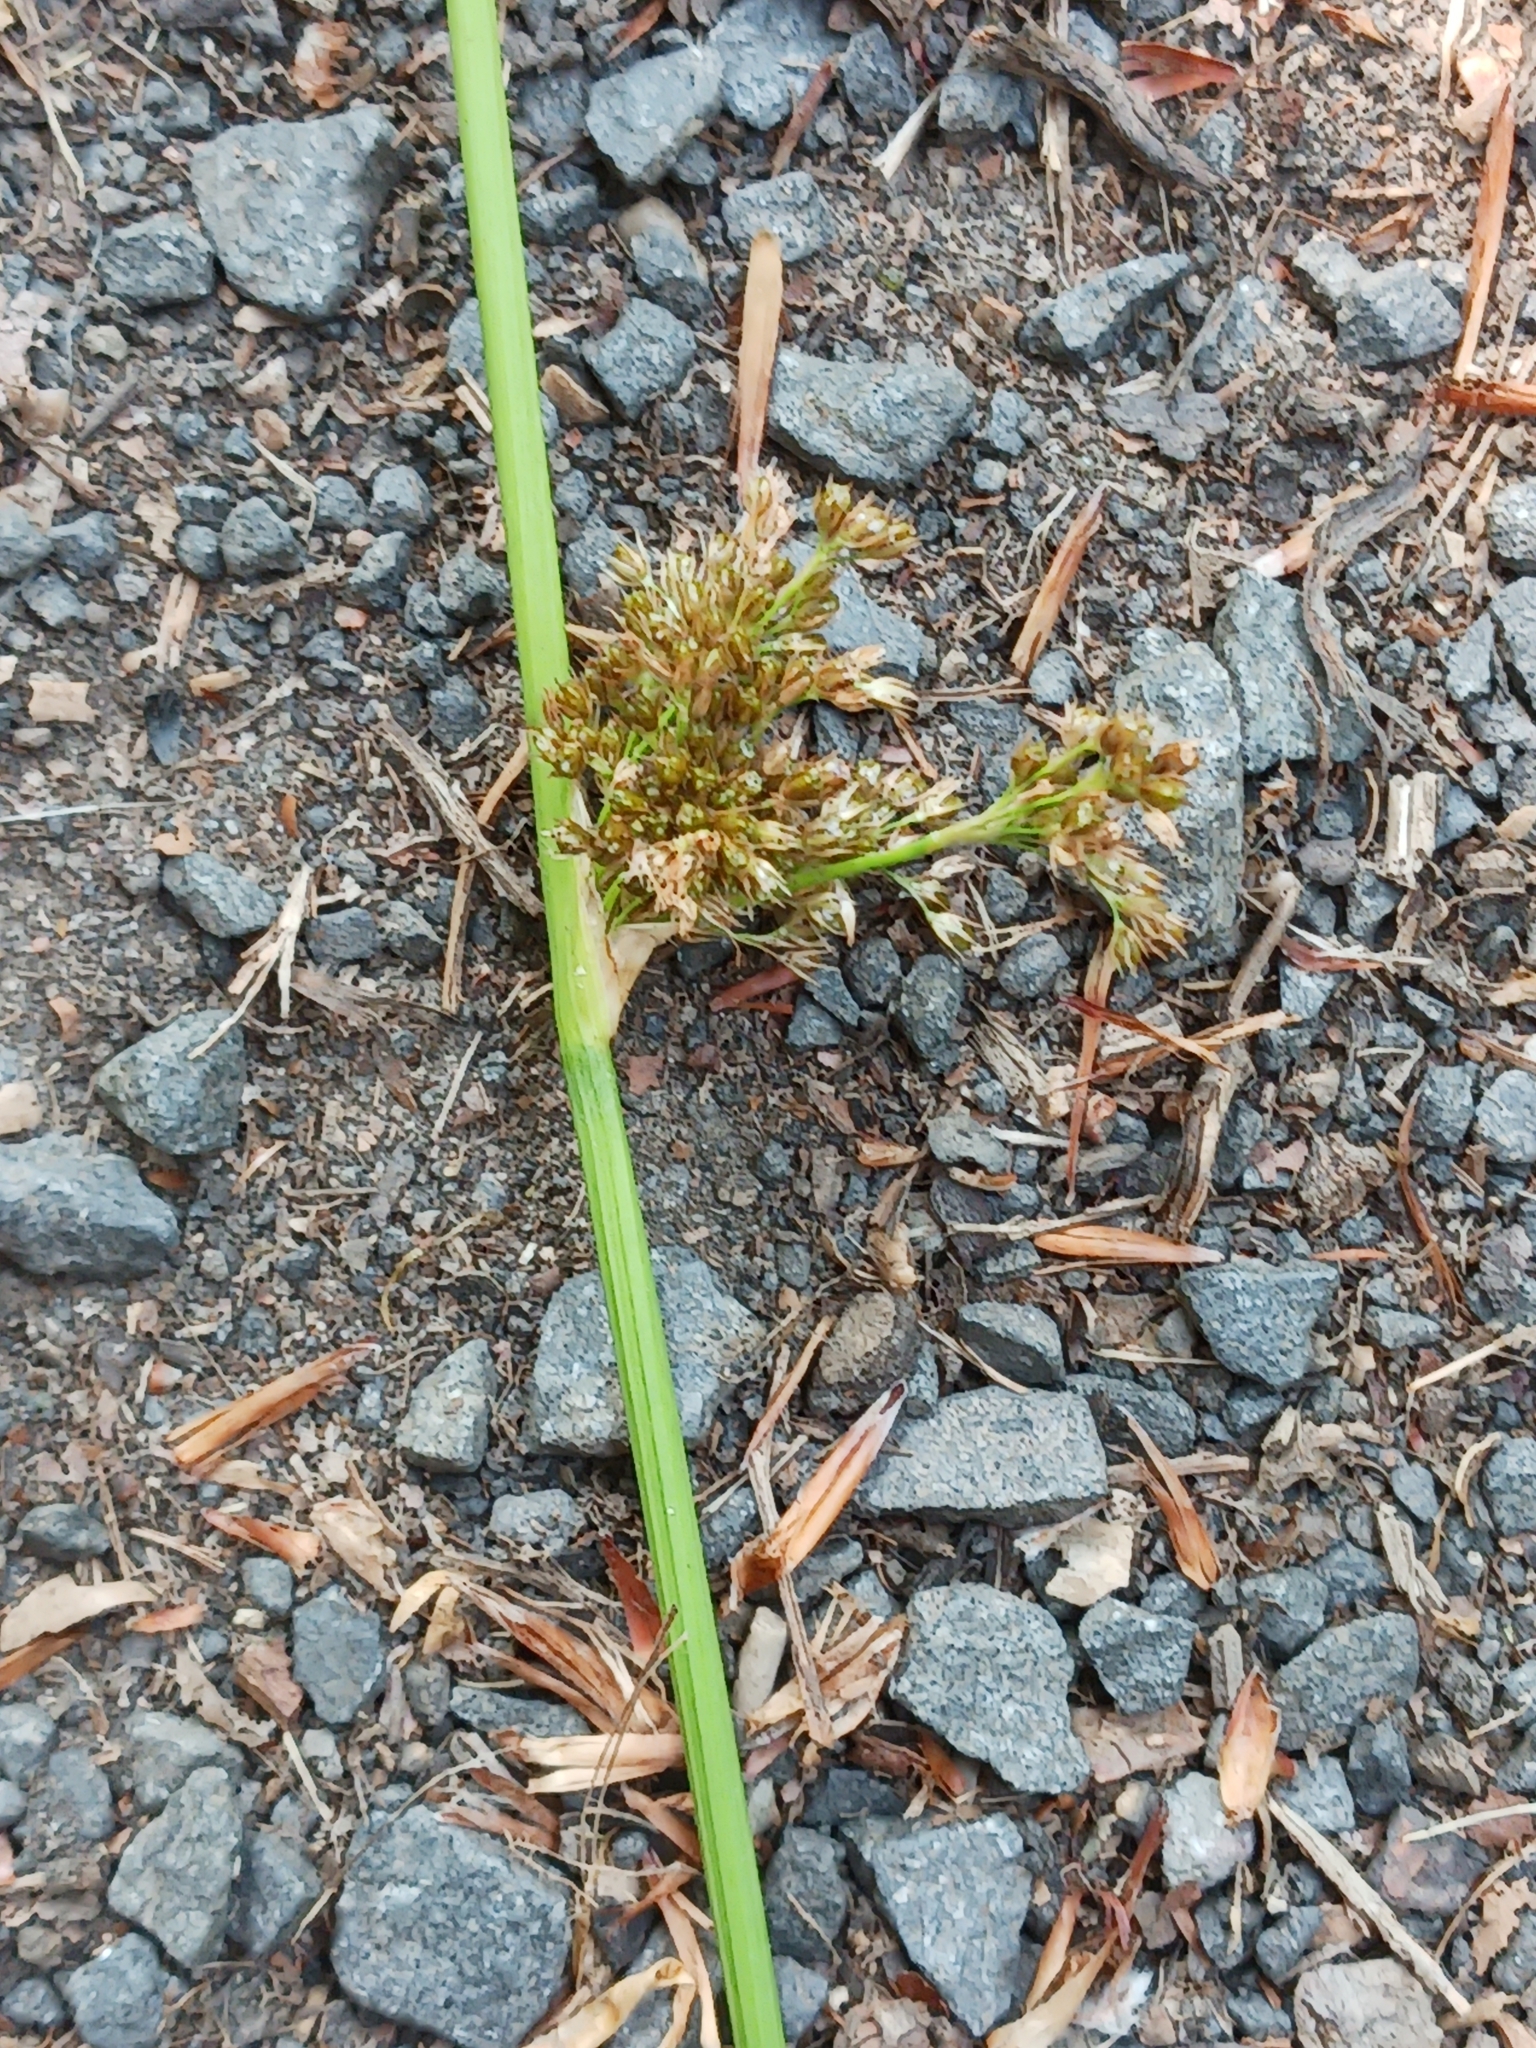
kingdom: Plantae
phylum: Tracheophyta
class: Liliopsida
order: Poales
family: Juncaceae
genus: Juncus
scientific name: Juncus effusus
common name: Soft rush
